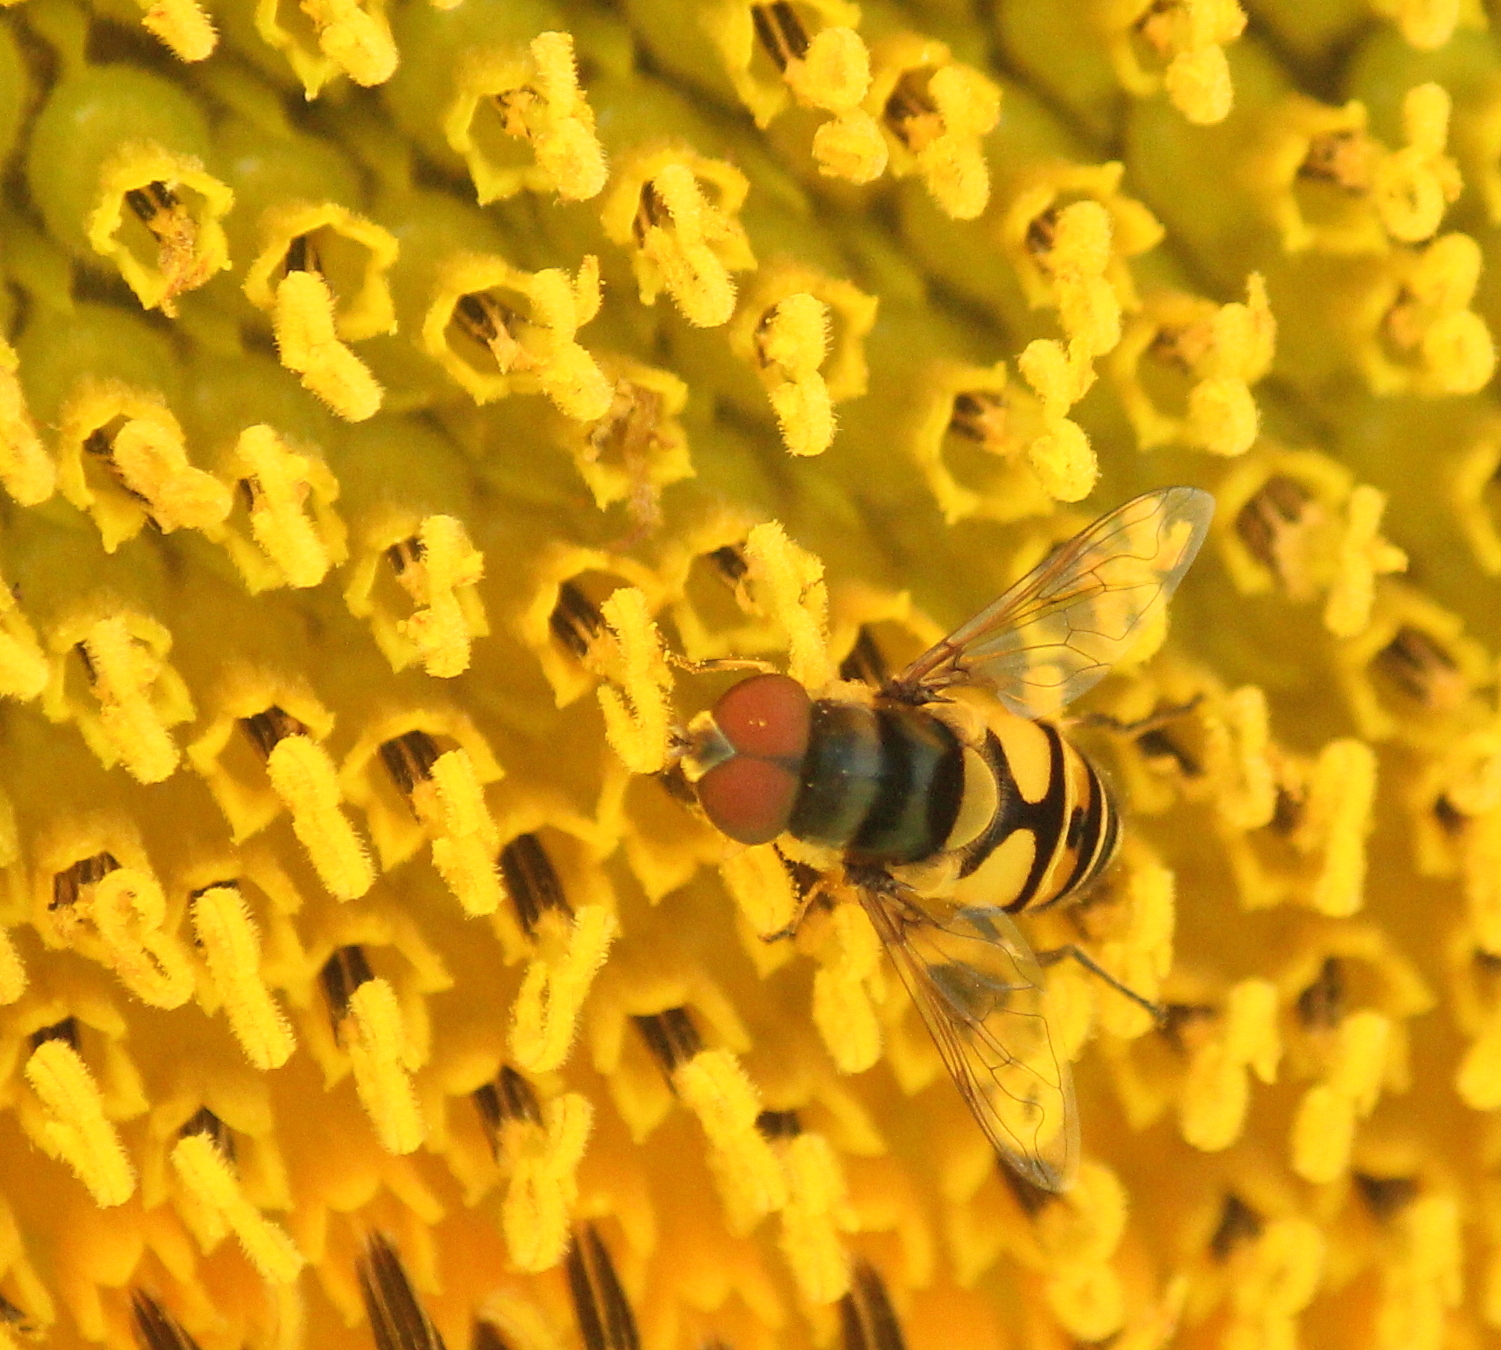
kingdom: Animalia
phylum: Arthropoda
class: Insecta
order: Diptera
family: Syrphidae
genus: Eristalis
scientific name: Eristalis transversa
